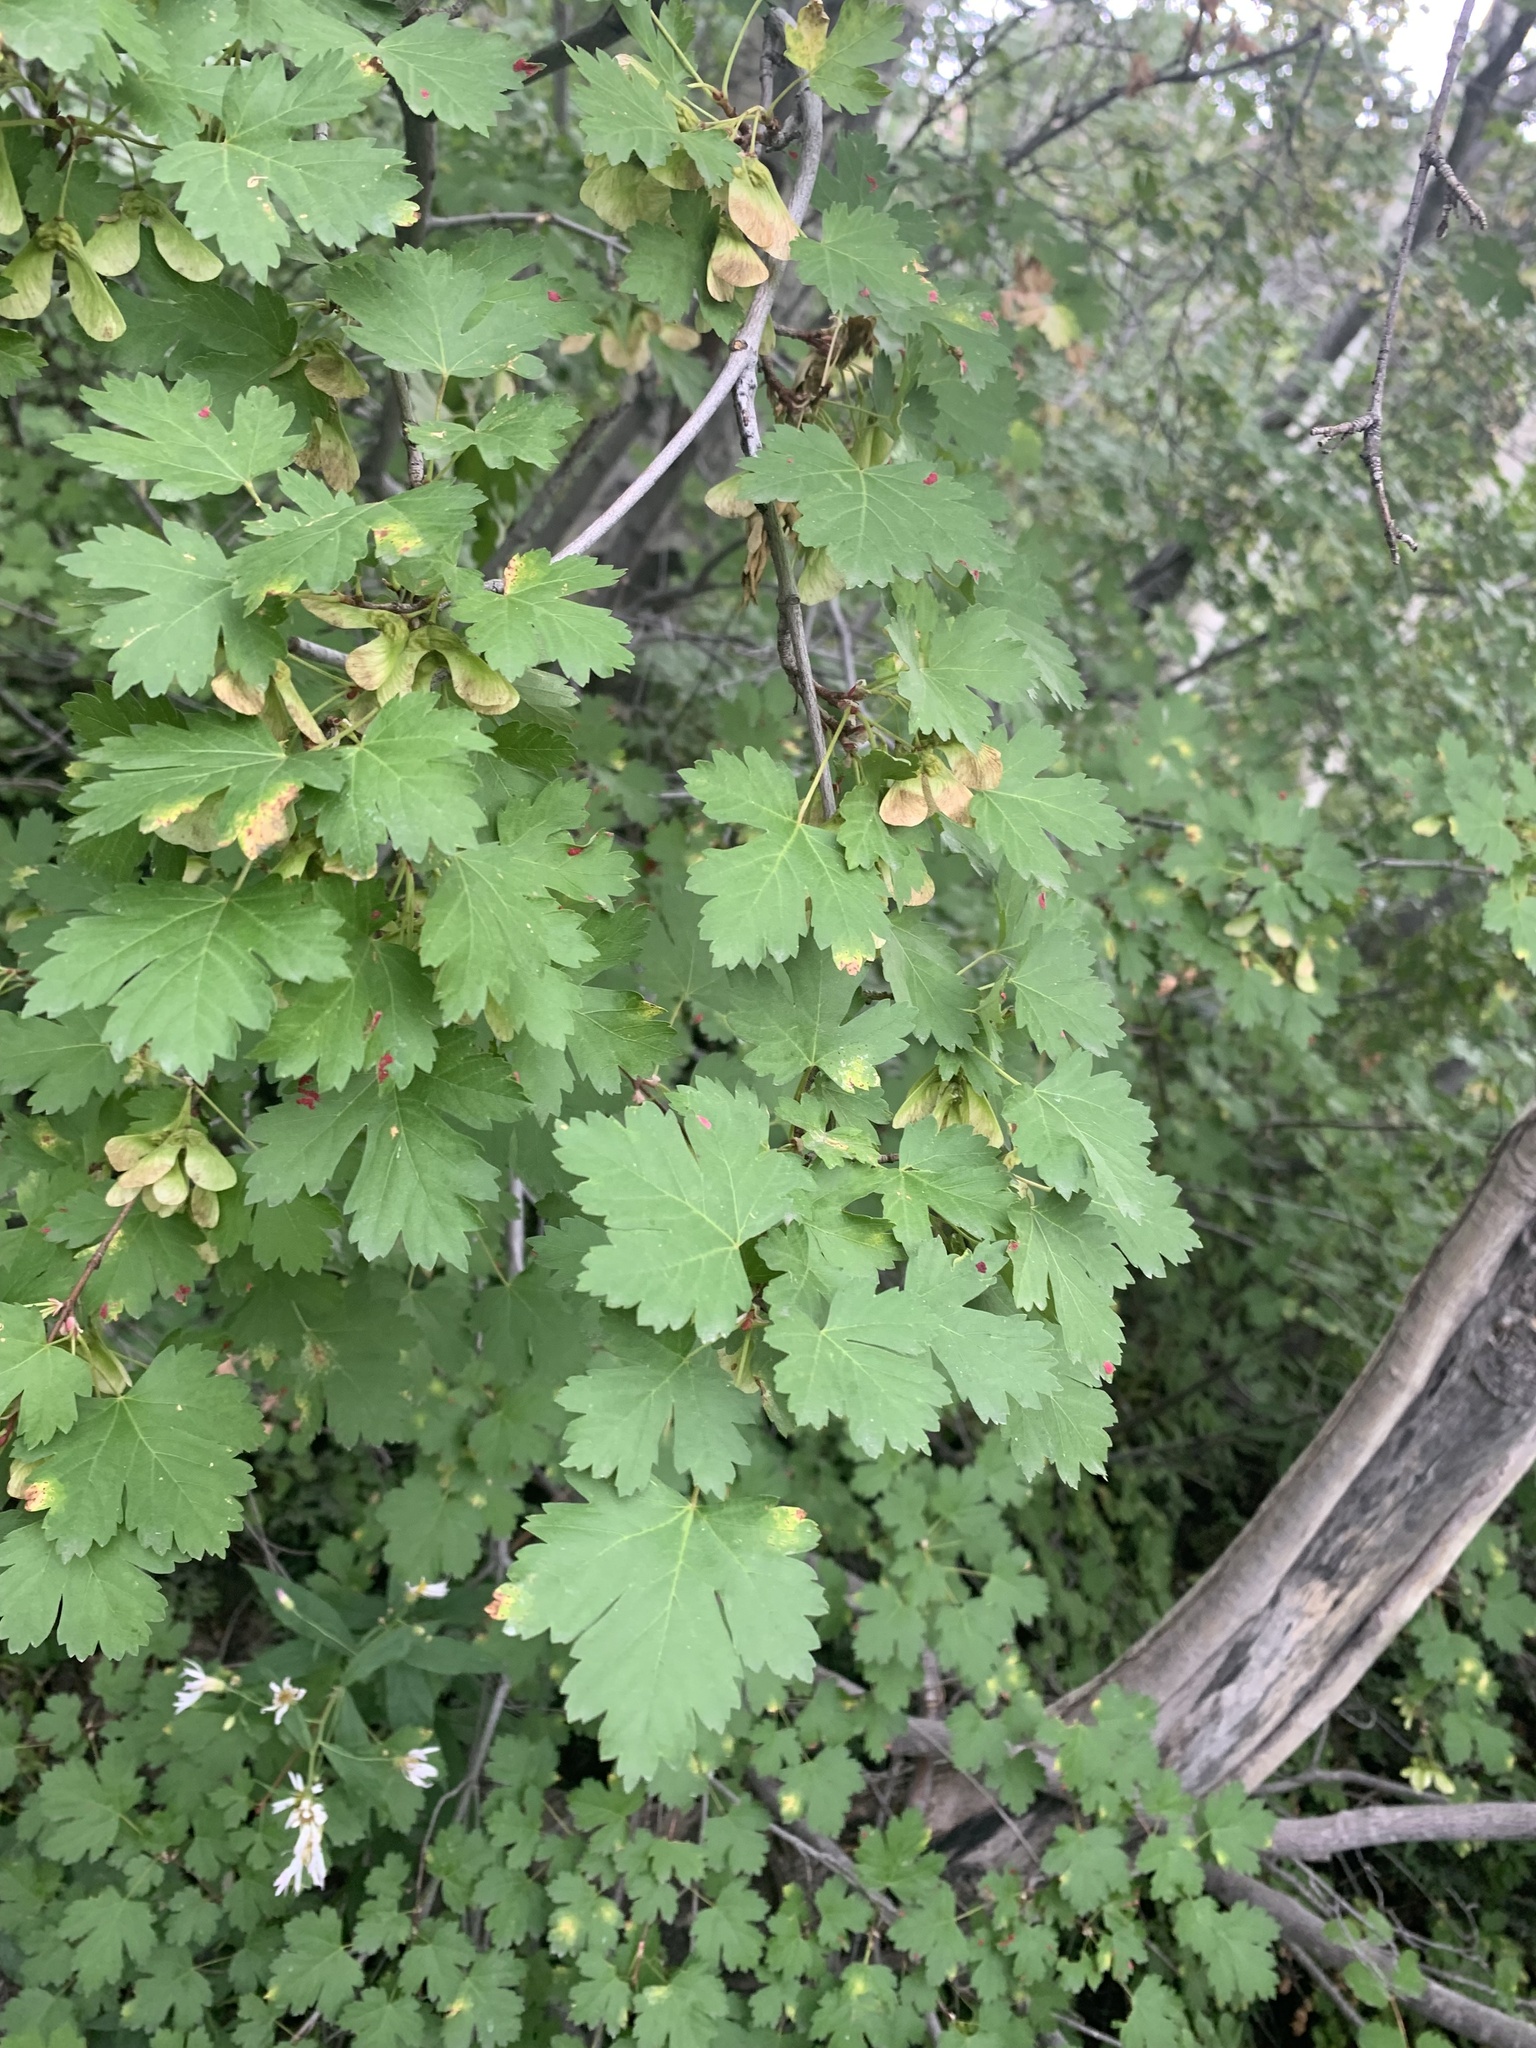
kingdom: Plantae
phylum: Tracheophyta
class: Magnoliopsida
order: Sapindales
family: Sapindaceae
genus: Acer
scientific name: Acer glabrum
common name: Rocky mountain maple
